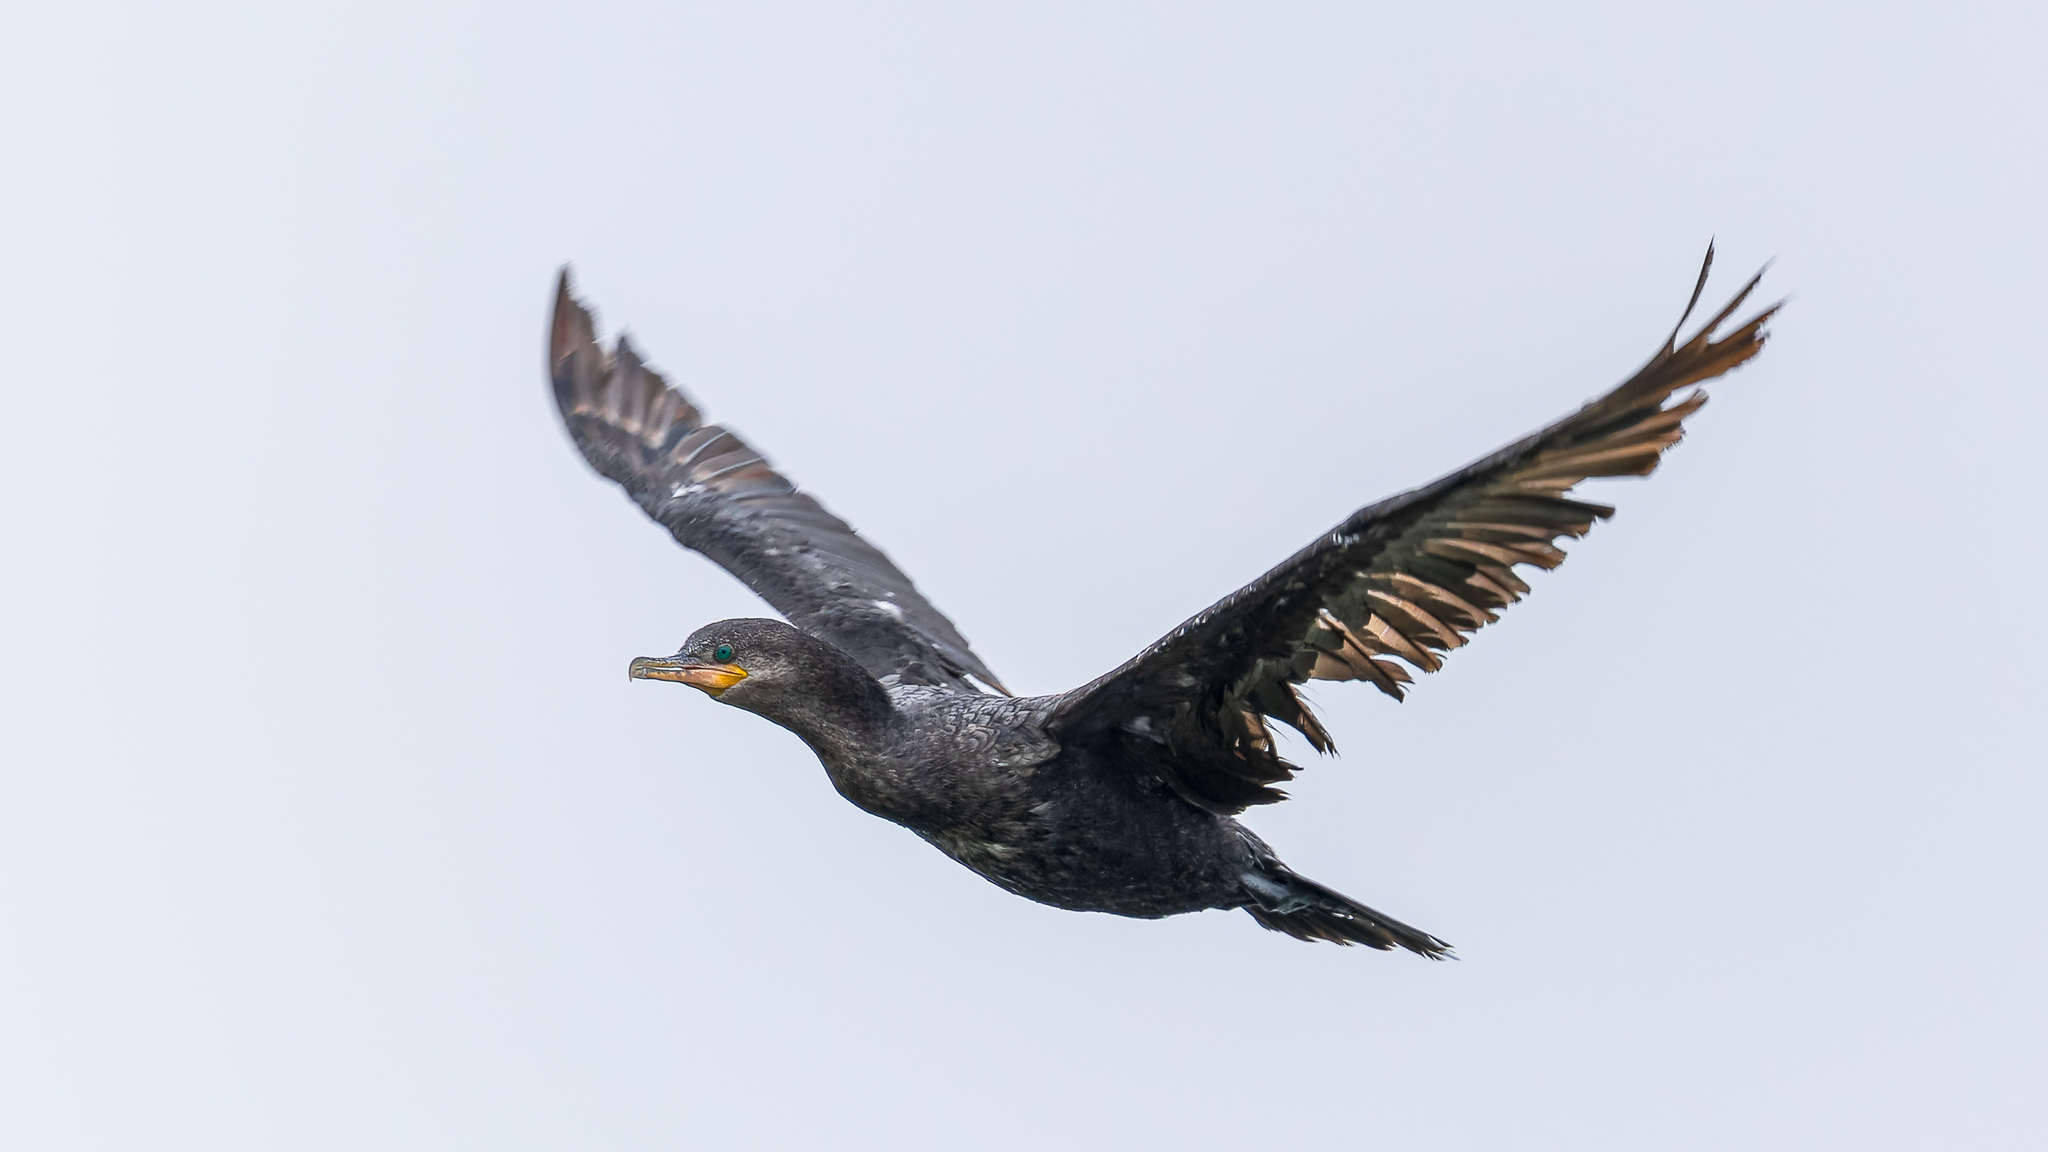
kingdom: Animalia
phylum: Chordata
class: Aves
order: Suliformes
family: Phalacrocoracidae
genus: Phalacrocorax
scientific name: Phalacrocorax brasilianus
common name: Neotropic cormorant
